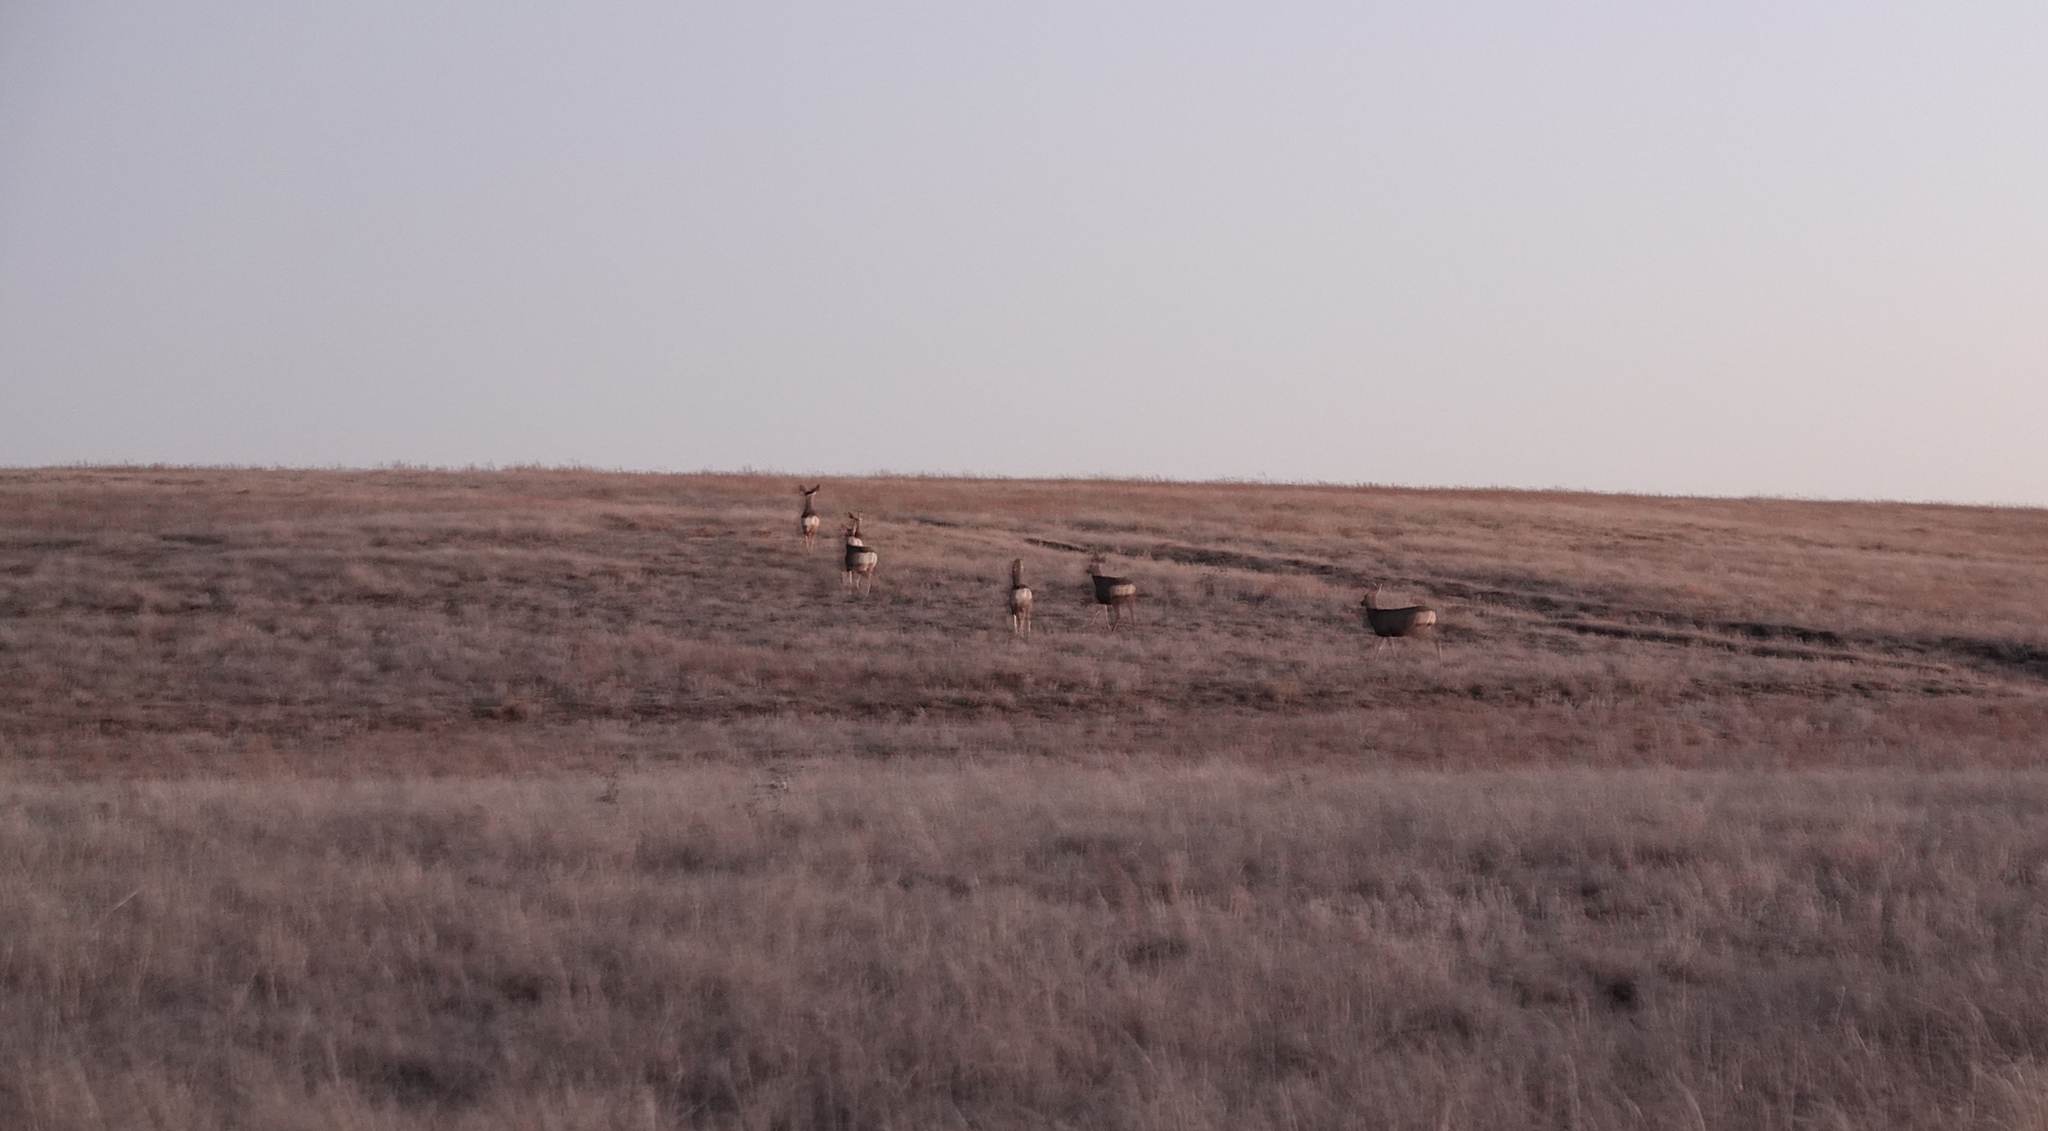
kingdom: Animalia
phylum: Chordata
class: Mammalia
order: Artiodactyla
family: Cervidae
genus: Odocoileus
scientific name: Odocoileus hemionus
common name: Mule deer
